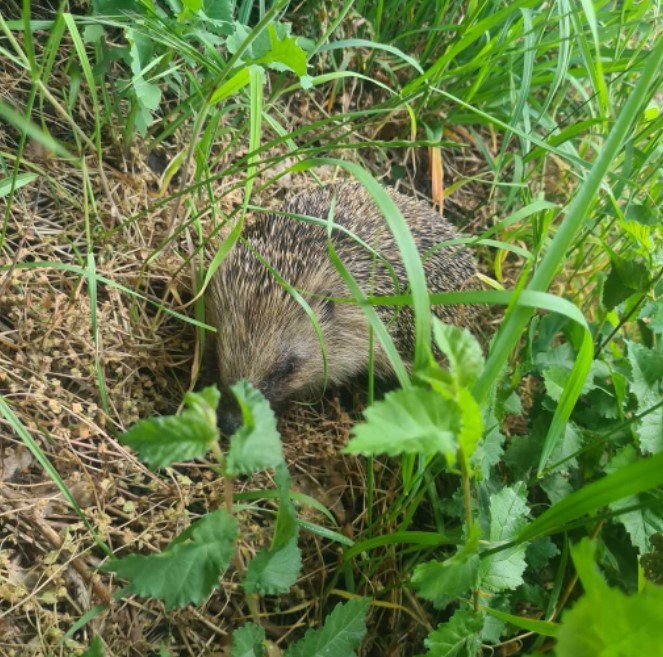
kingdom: Animalia
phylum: Chordata
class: Mammalia
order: Erinaceomorpha
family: Erinaceidae
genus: Erinaceus
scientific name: Erinaceus europaeus
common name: West european hedgehog
